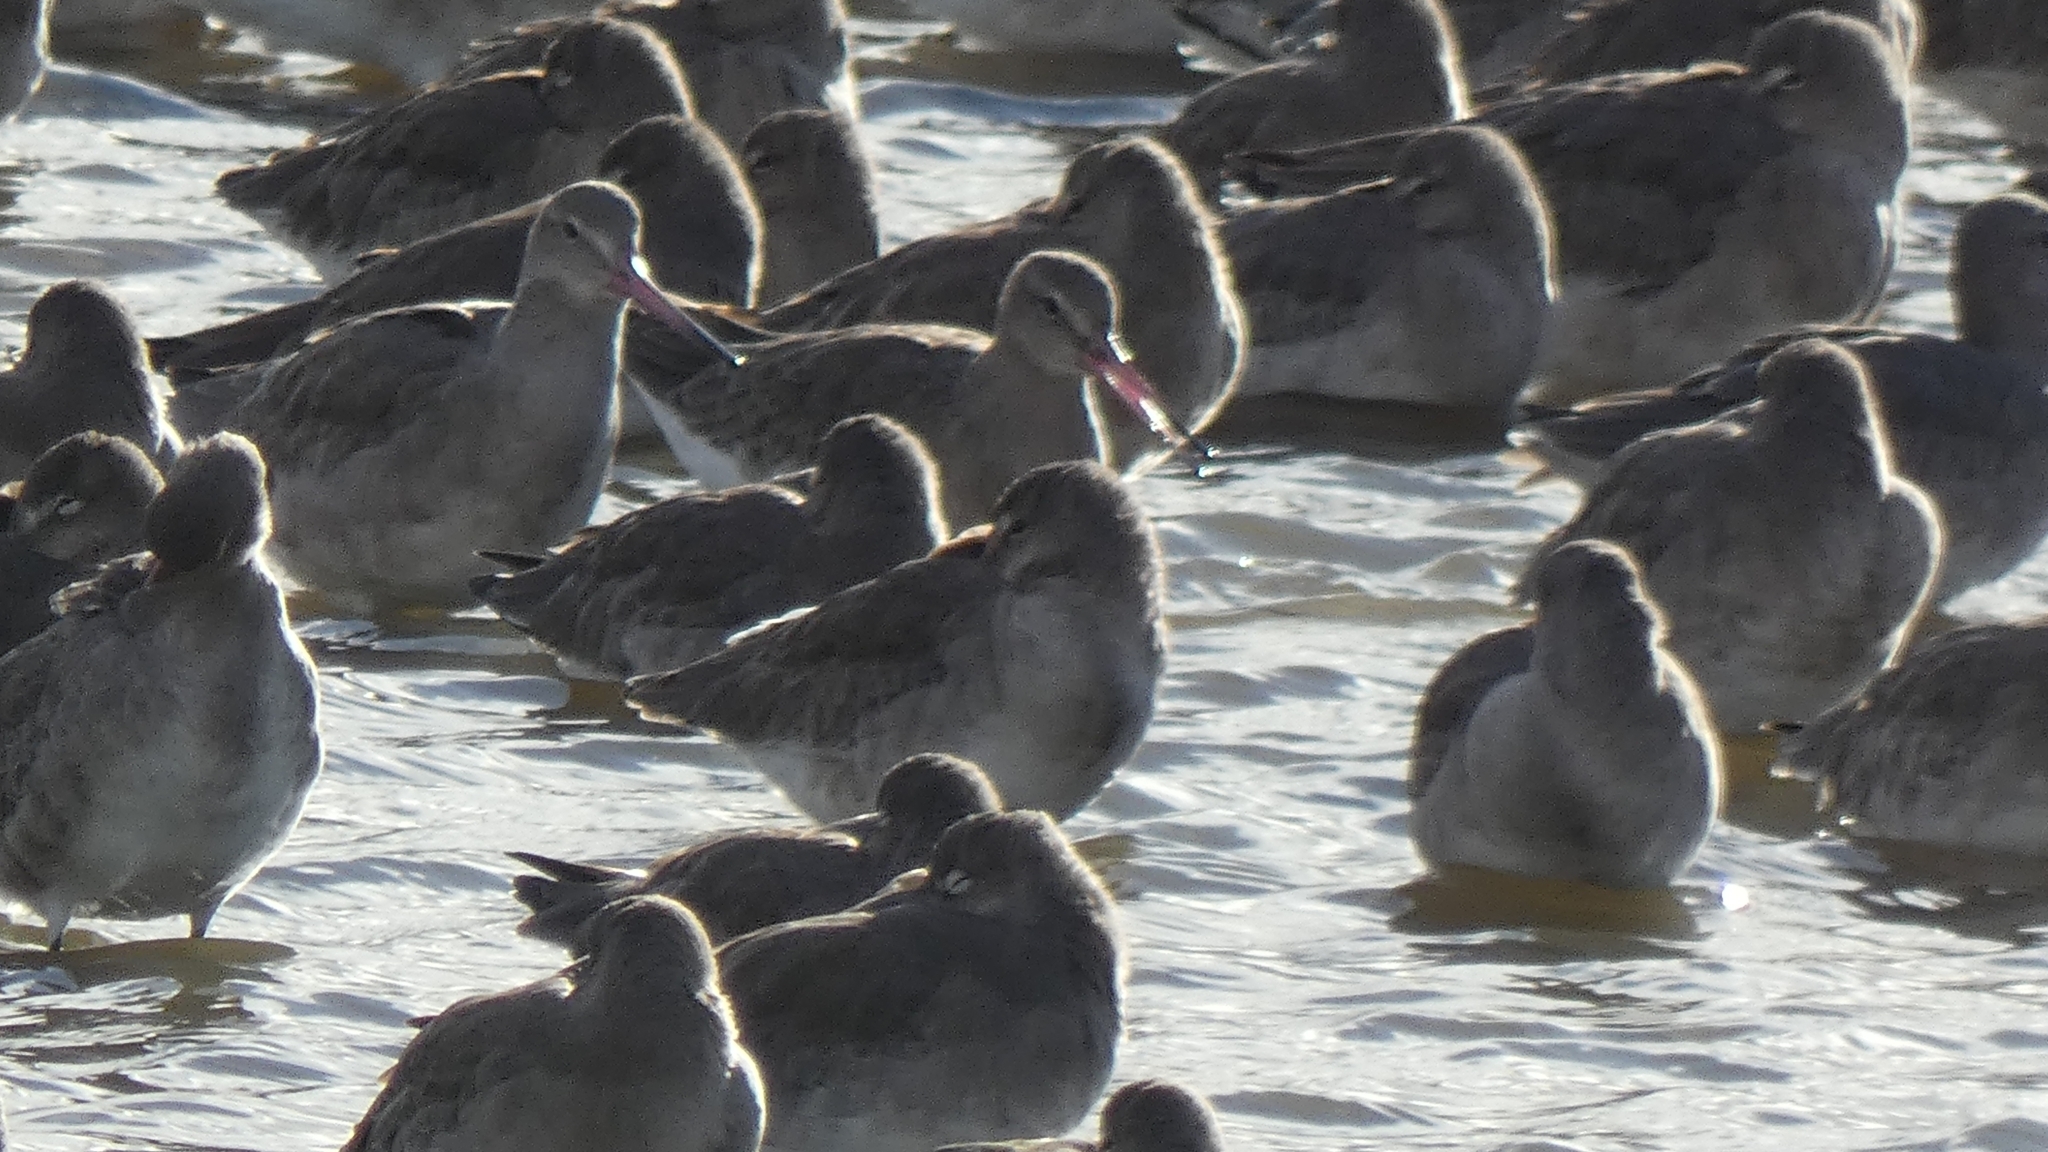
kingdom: Animalia
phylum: Chordata
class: Aves
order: Charadriiformes
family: Scolopacidae
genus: Limosa
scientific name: Limosa limosa
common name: Black-tailed godwit
